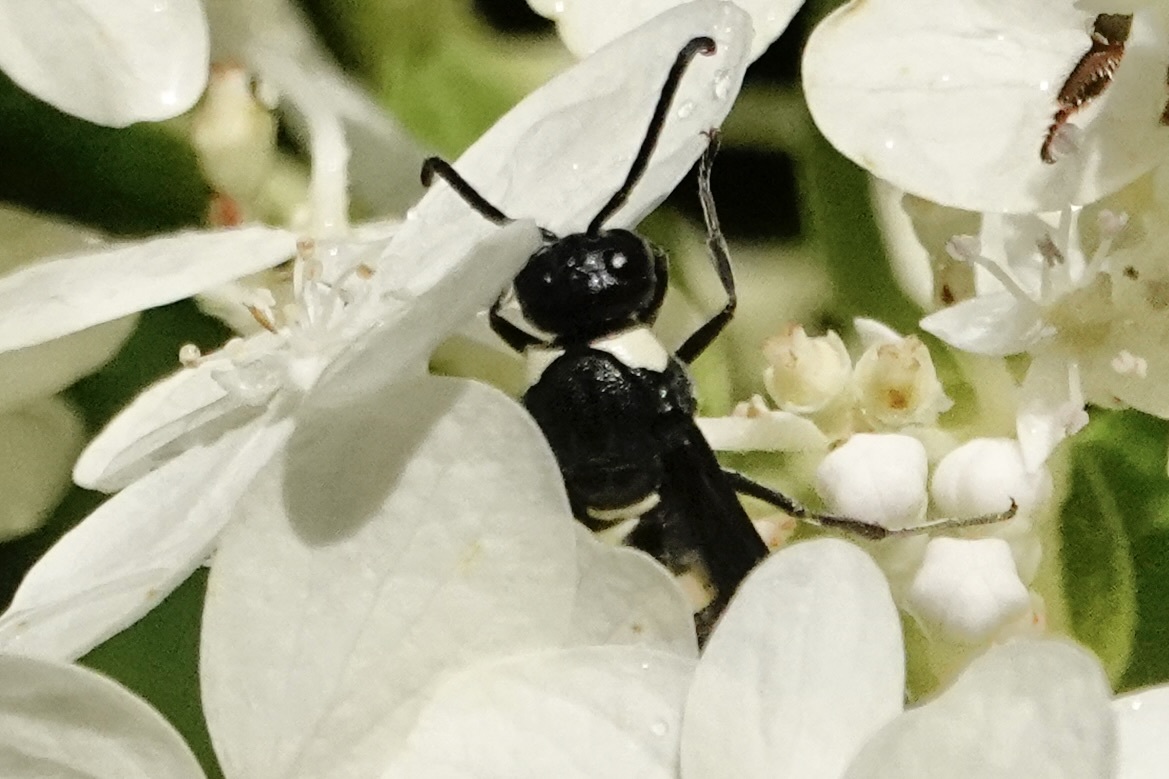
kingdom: Animalia
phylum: Arthropoda
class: Insecta
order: Hymenoptera
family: Eumenidae
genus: Monobia
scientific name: Monobia quadridens
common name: Four-toothed mason wasp
